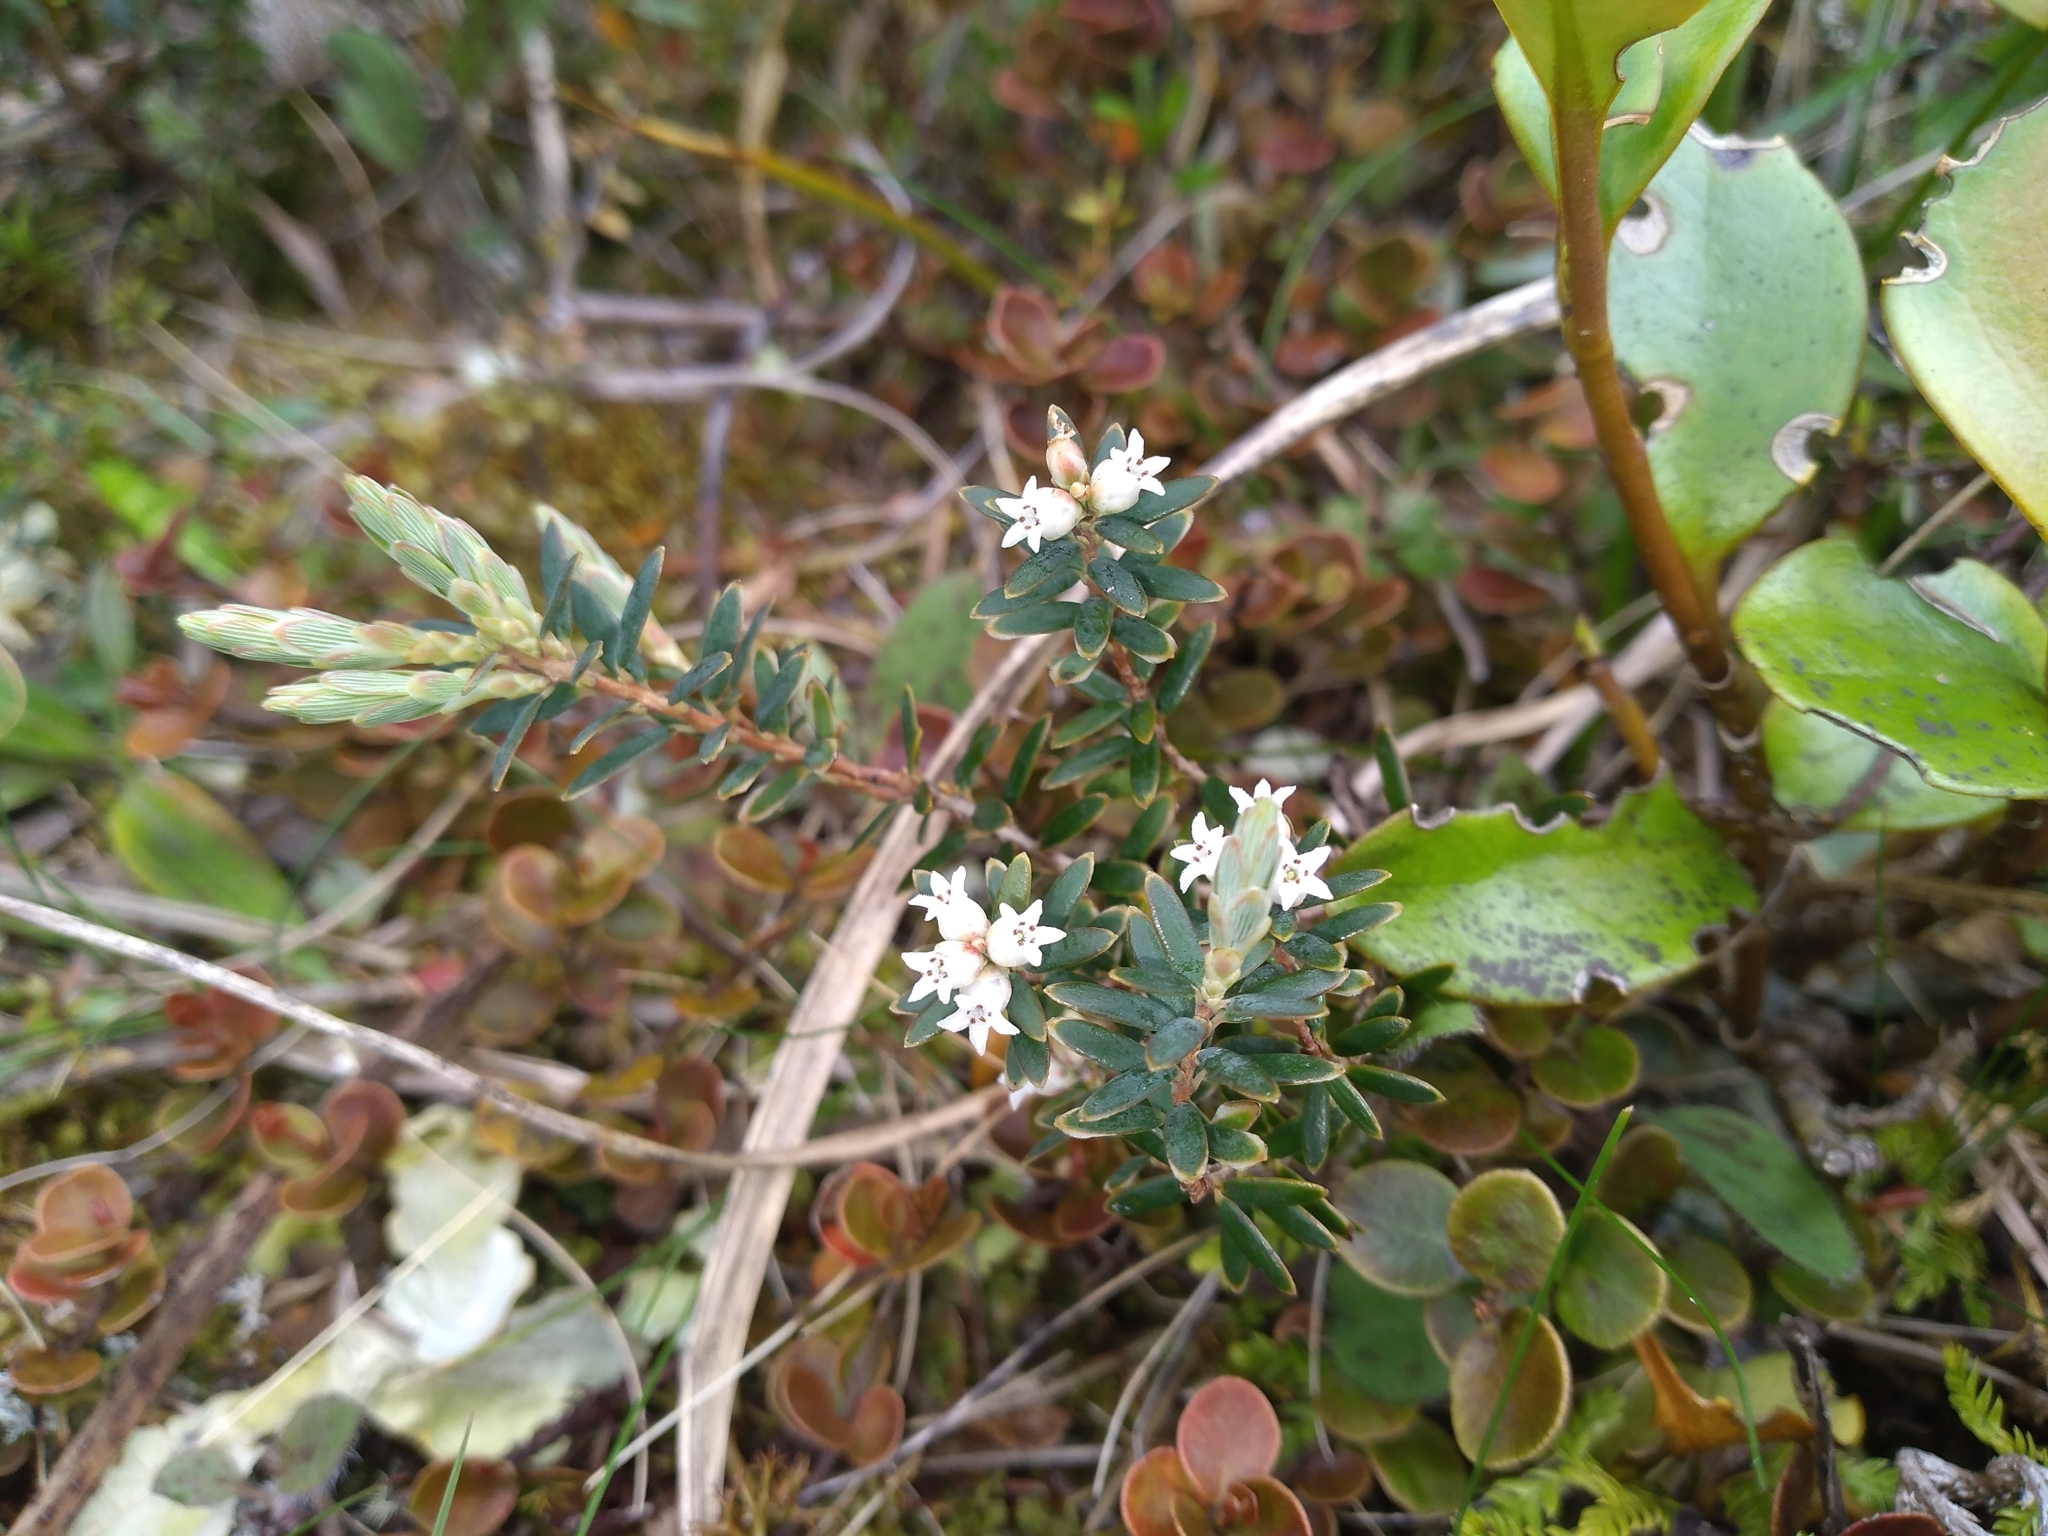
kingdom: Plantae
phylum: Tracheophyta
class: Magnoliopsida
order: Ericales
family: Ericaceae
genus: Acrothamnus
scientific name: Acrothamnus colensoi
